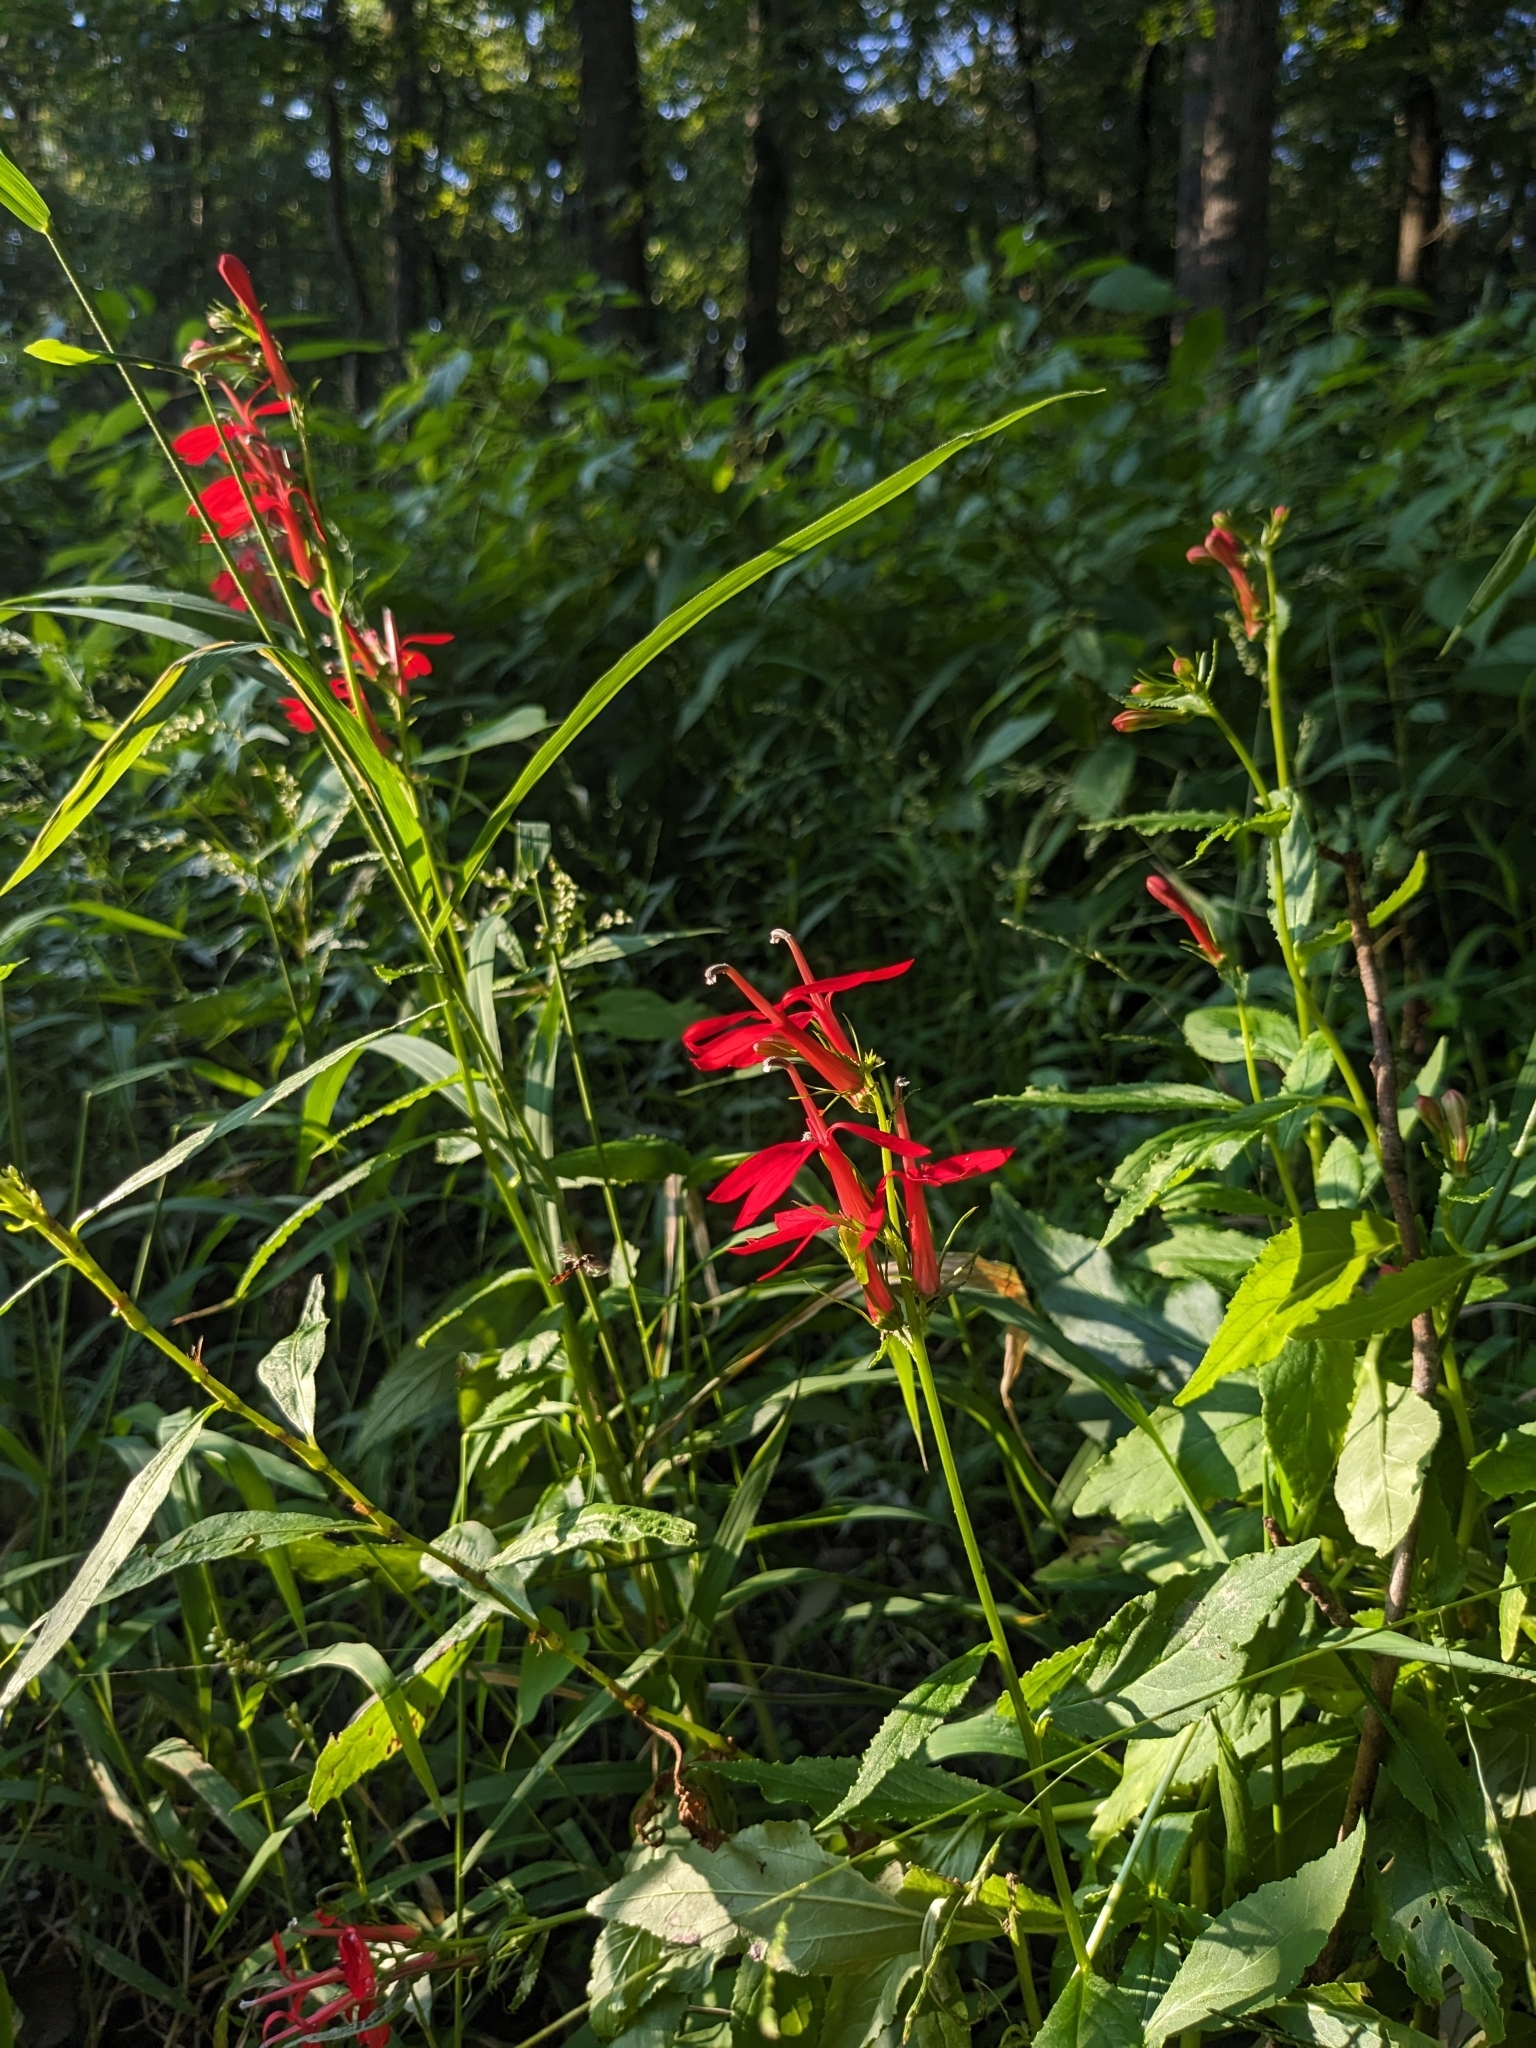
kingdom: Plantae
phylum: Tracheophyta
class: Magnoliopsida
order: Asterales
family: Campanulaceae
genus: Lobelia
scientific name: Lobelia cardinalis
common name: Cardinal flower
